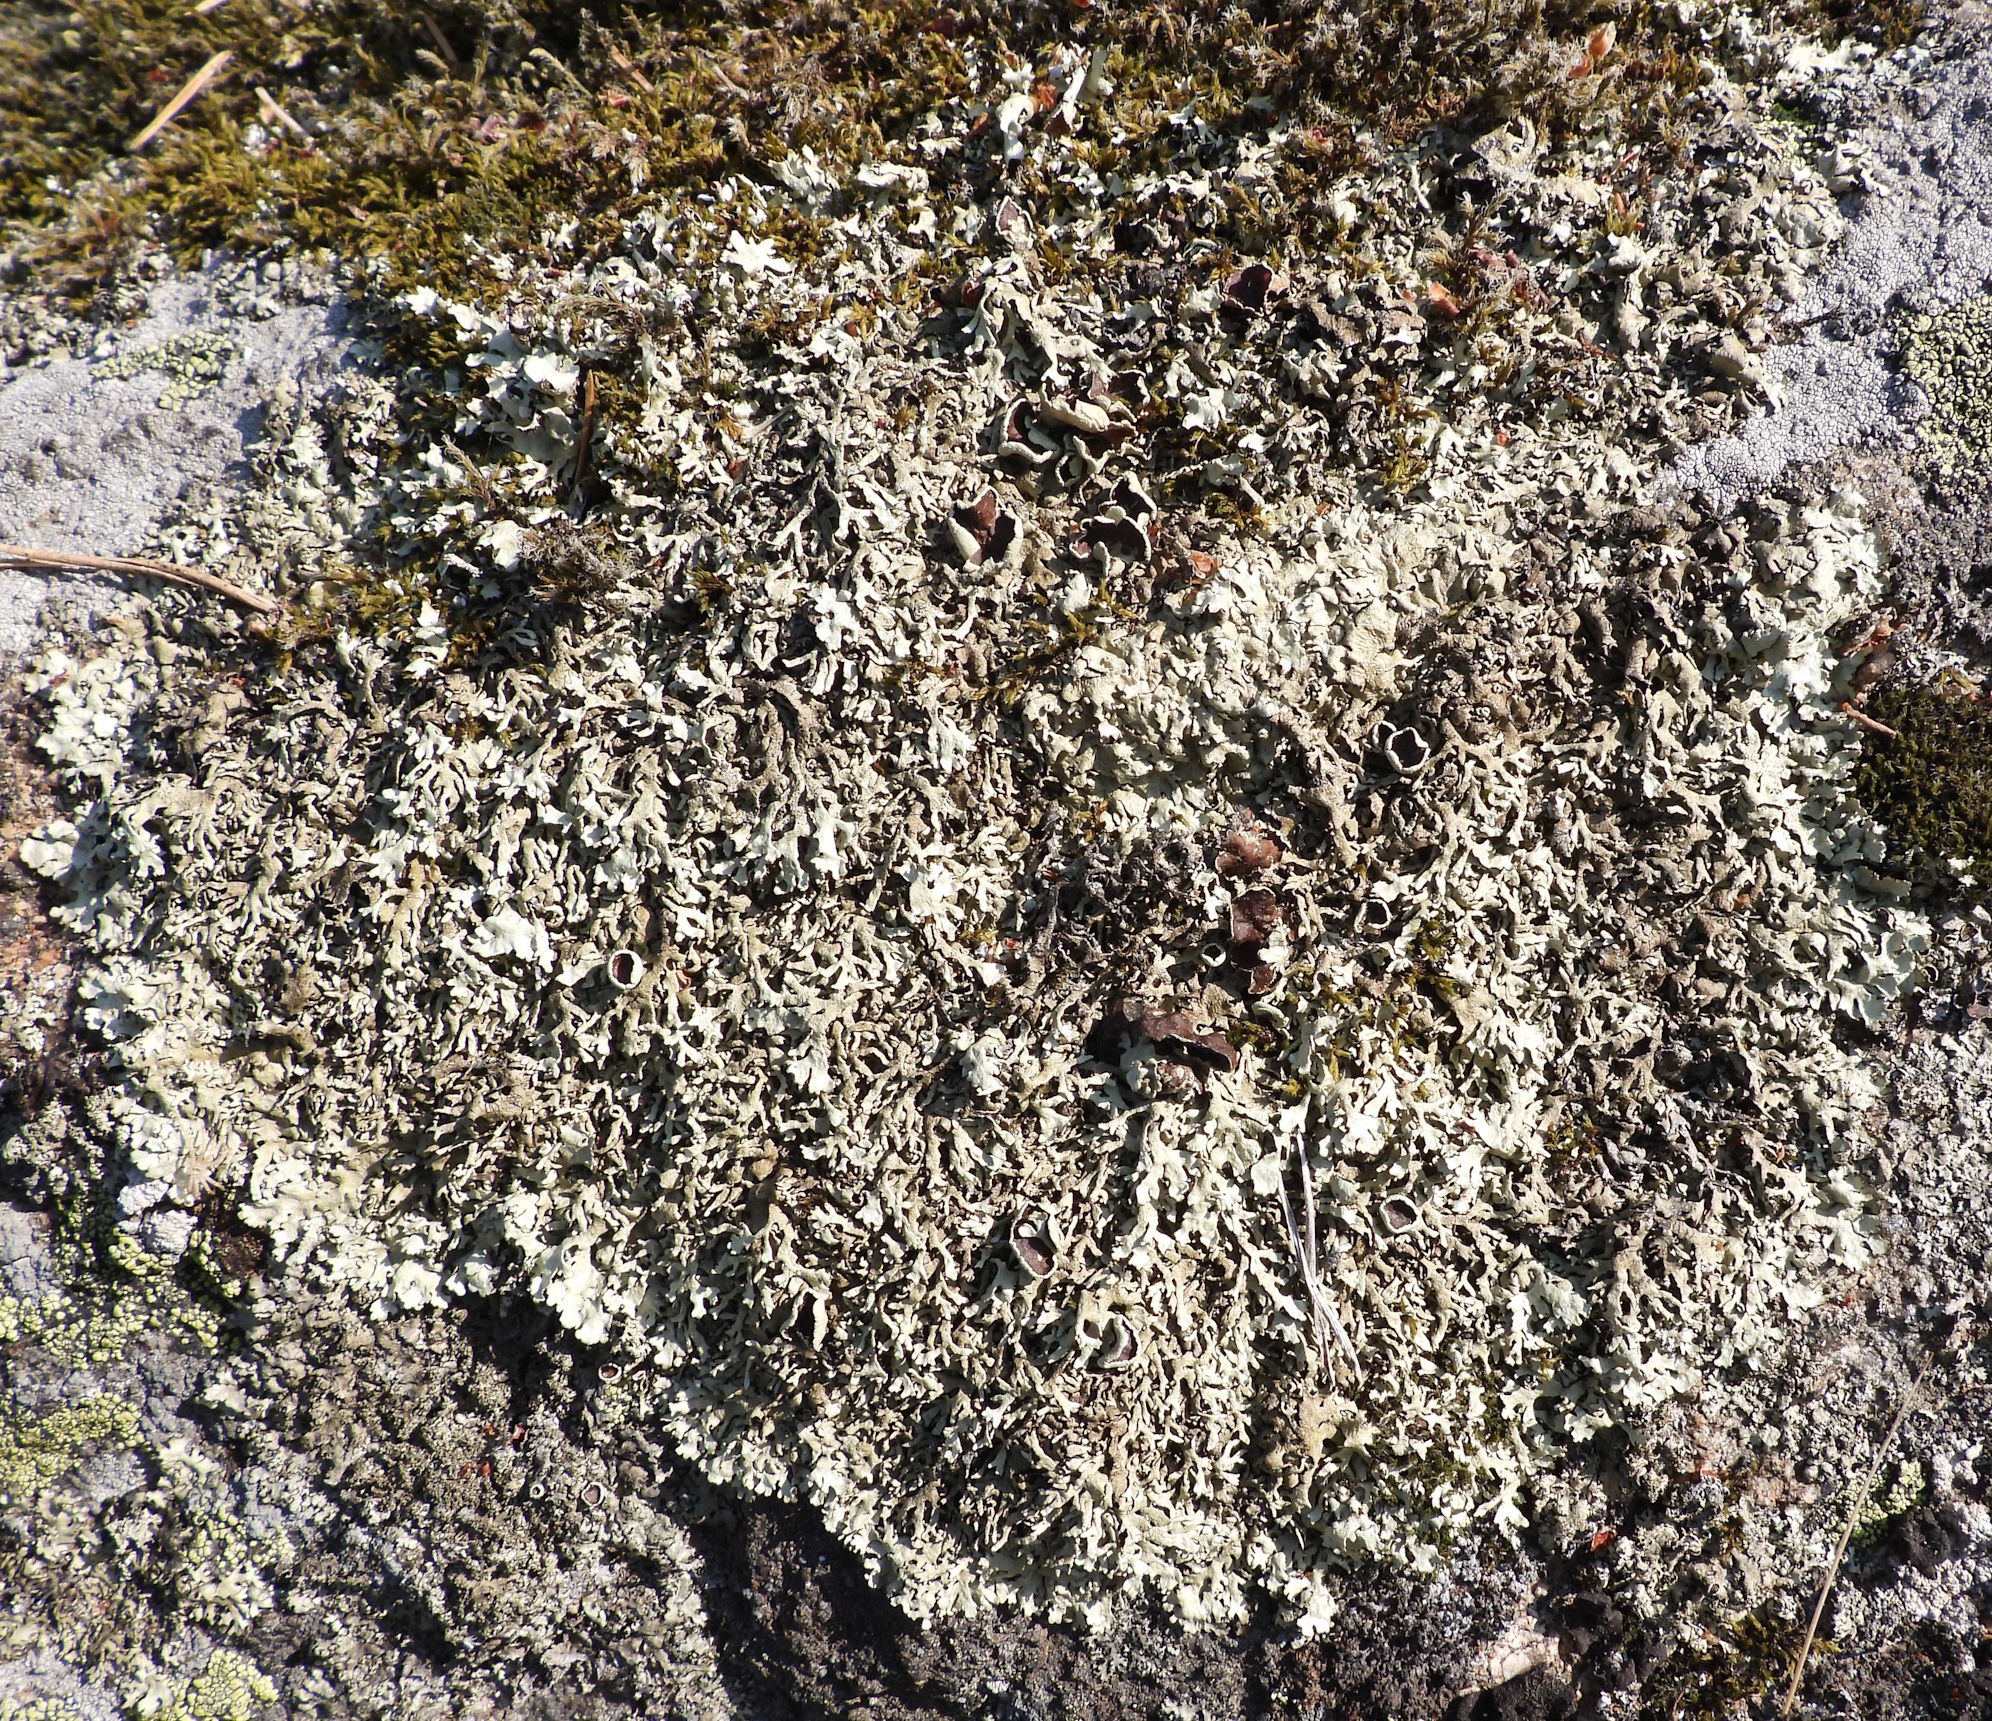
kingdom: Fungi
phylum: Ascomycota
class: Lecanoromycetes
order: Lecanorales
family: Parmeliaceae
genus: Xanthoparmelia
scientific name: Xanthoparmelia stenophylla
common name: Shingled rock shield
